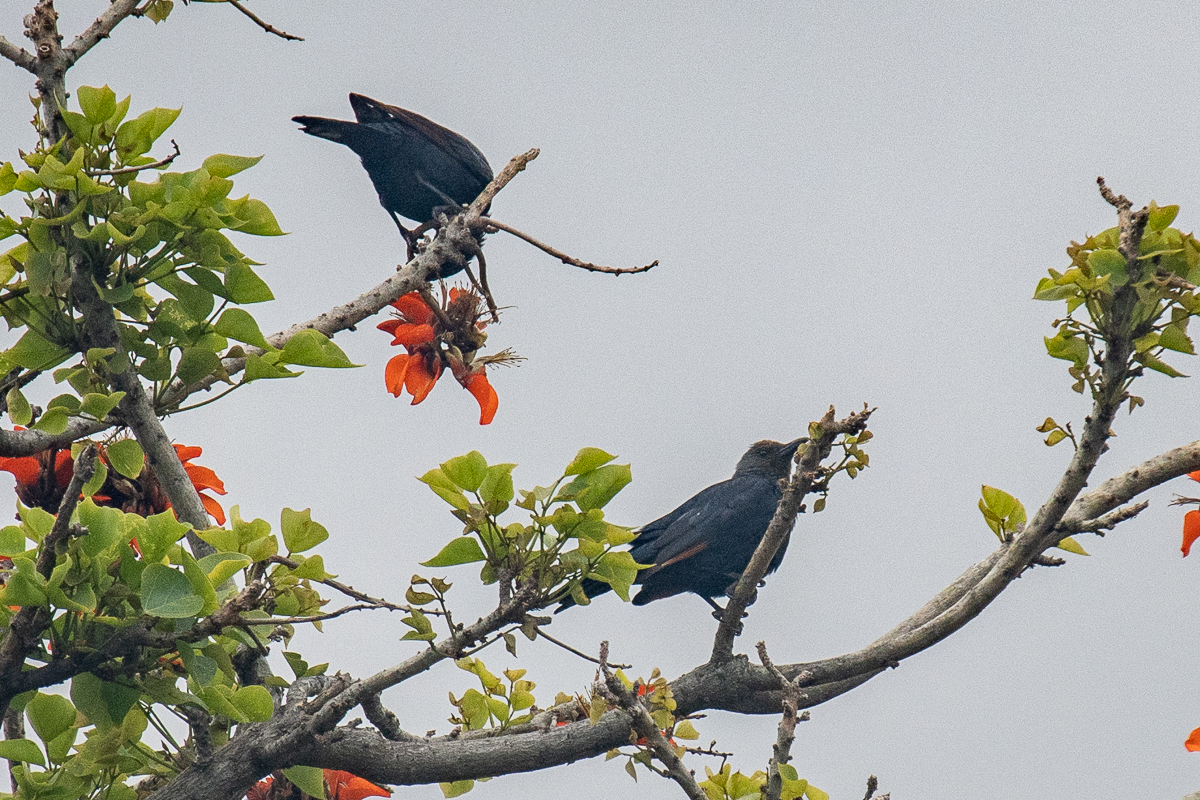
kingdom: Animalia
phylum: Chordata
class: Aves
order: Passeriformes
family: Sturnidae
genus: Onychognathus
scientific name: Onychognathus morio
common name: Red-winged starling
